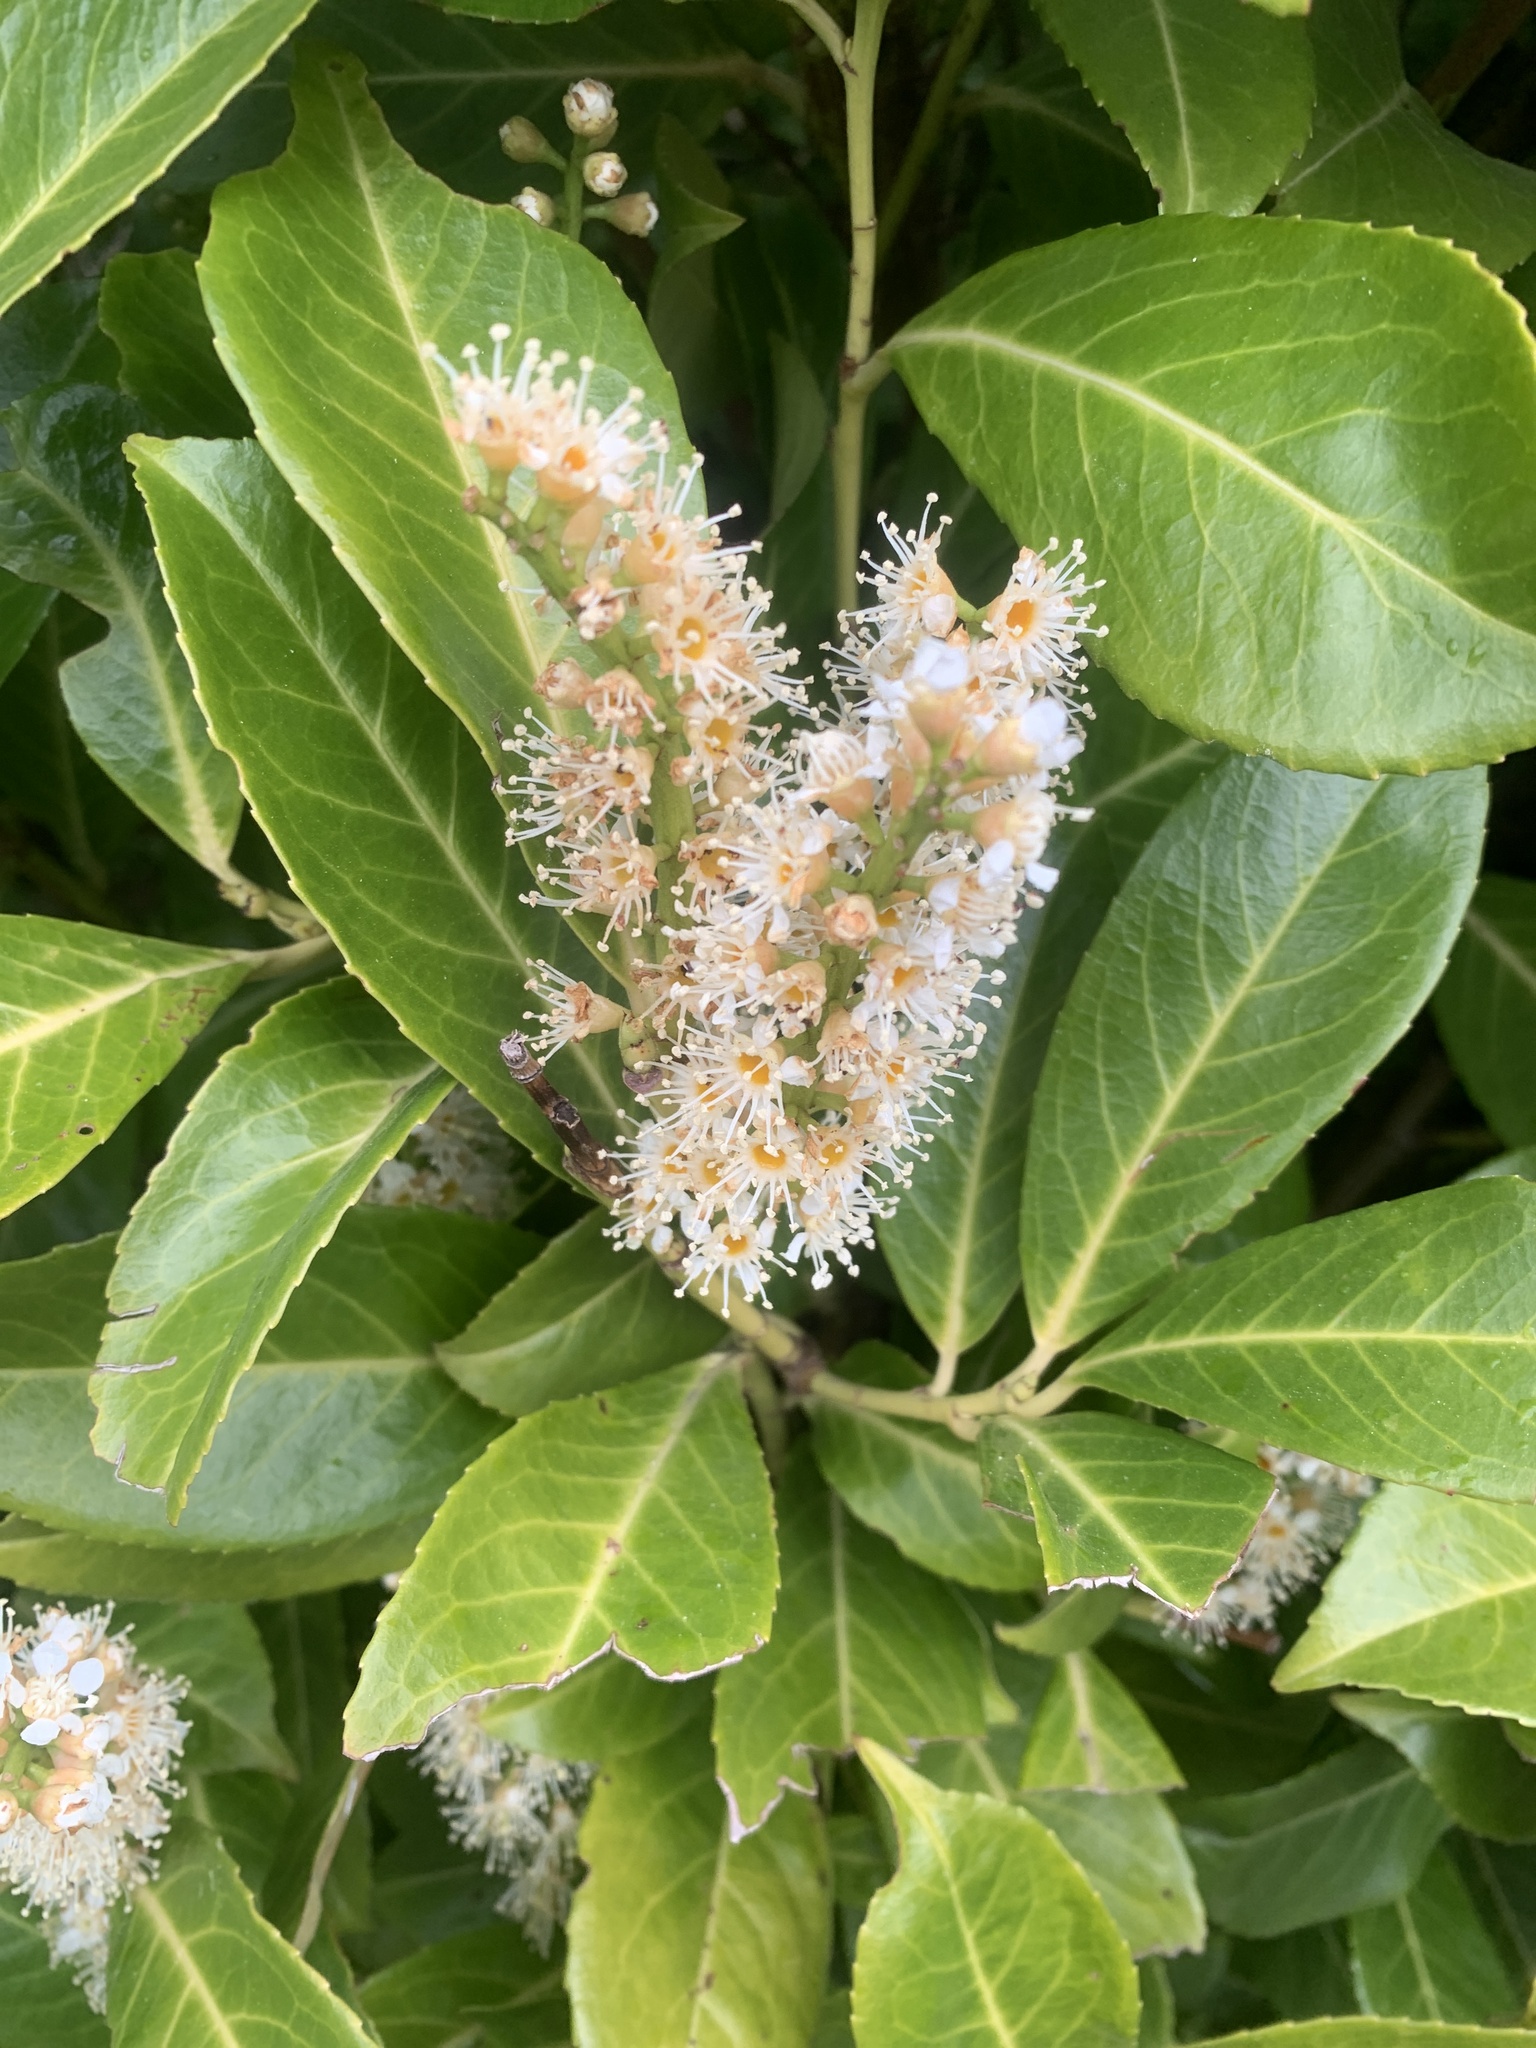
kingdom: Plantae
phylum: Tracheophyta
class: Magnoliopsida
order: Rosales
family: Rosaceae
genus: Prunus
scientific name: Prunus laurocerasus
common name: Cherry laurel
